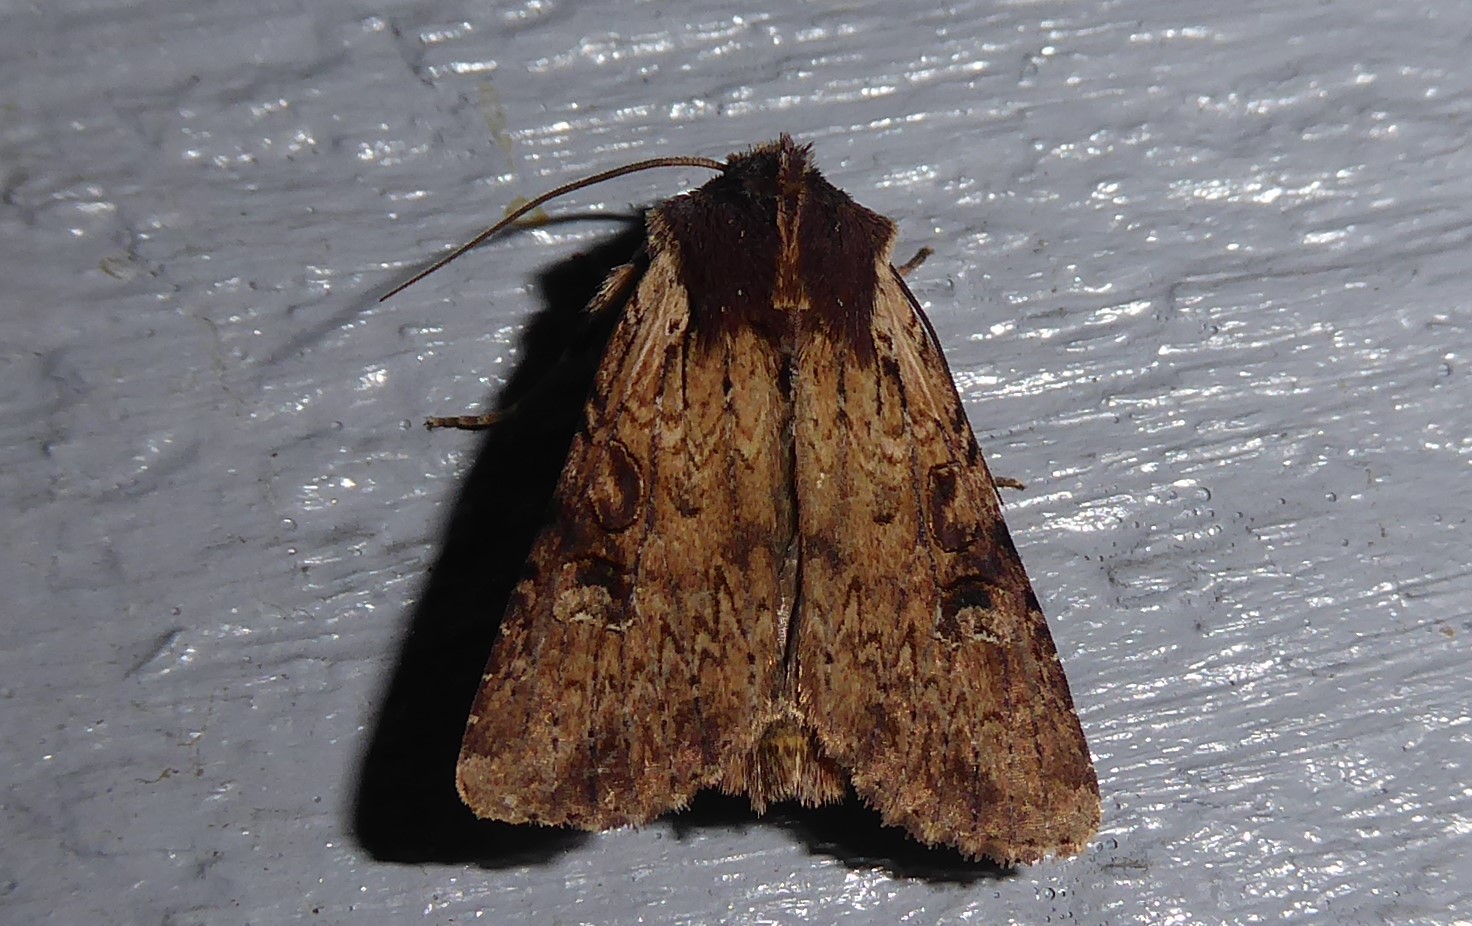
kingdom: Animalia
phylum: Arthropoda
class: Insecta
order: Lepidoptera
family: Noctuidae
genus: Ichneutica
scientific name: Ichneutica omoplaca
